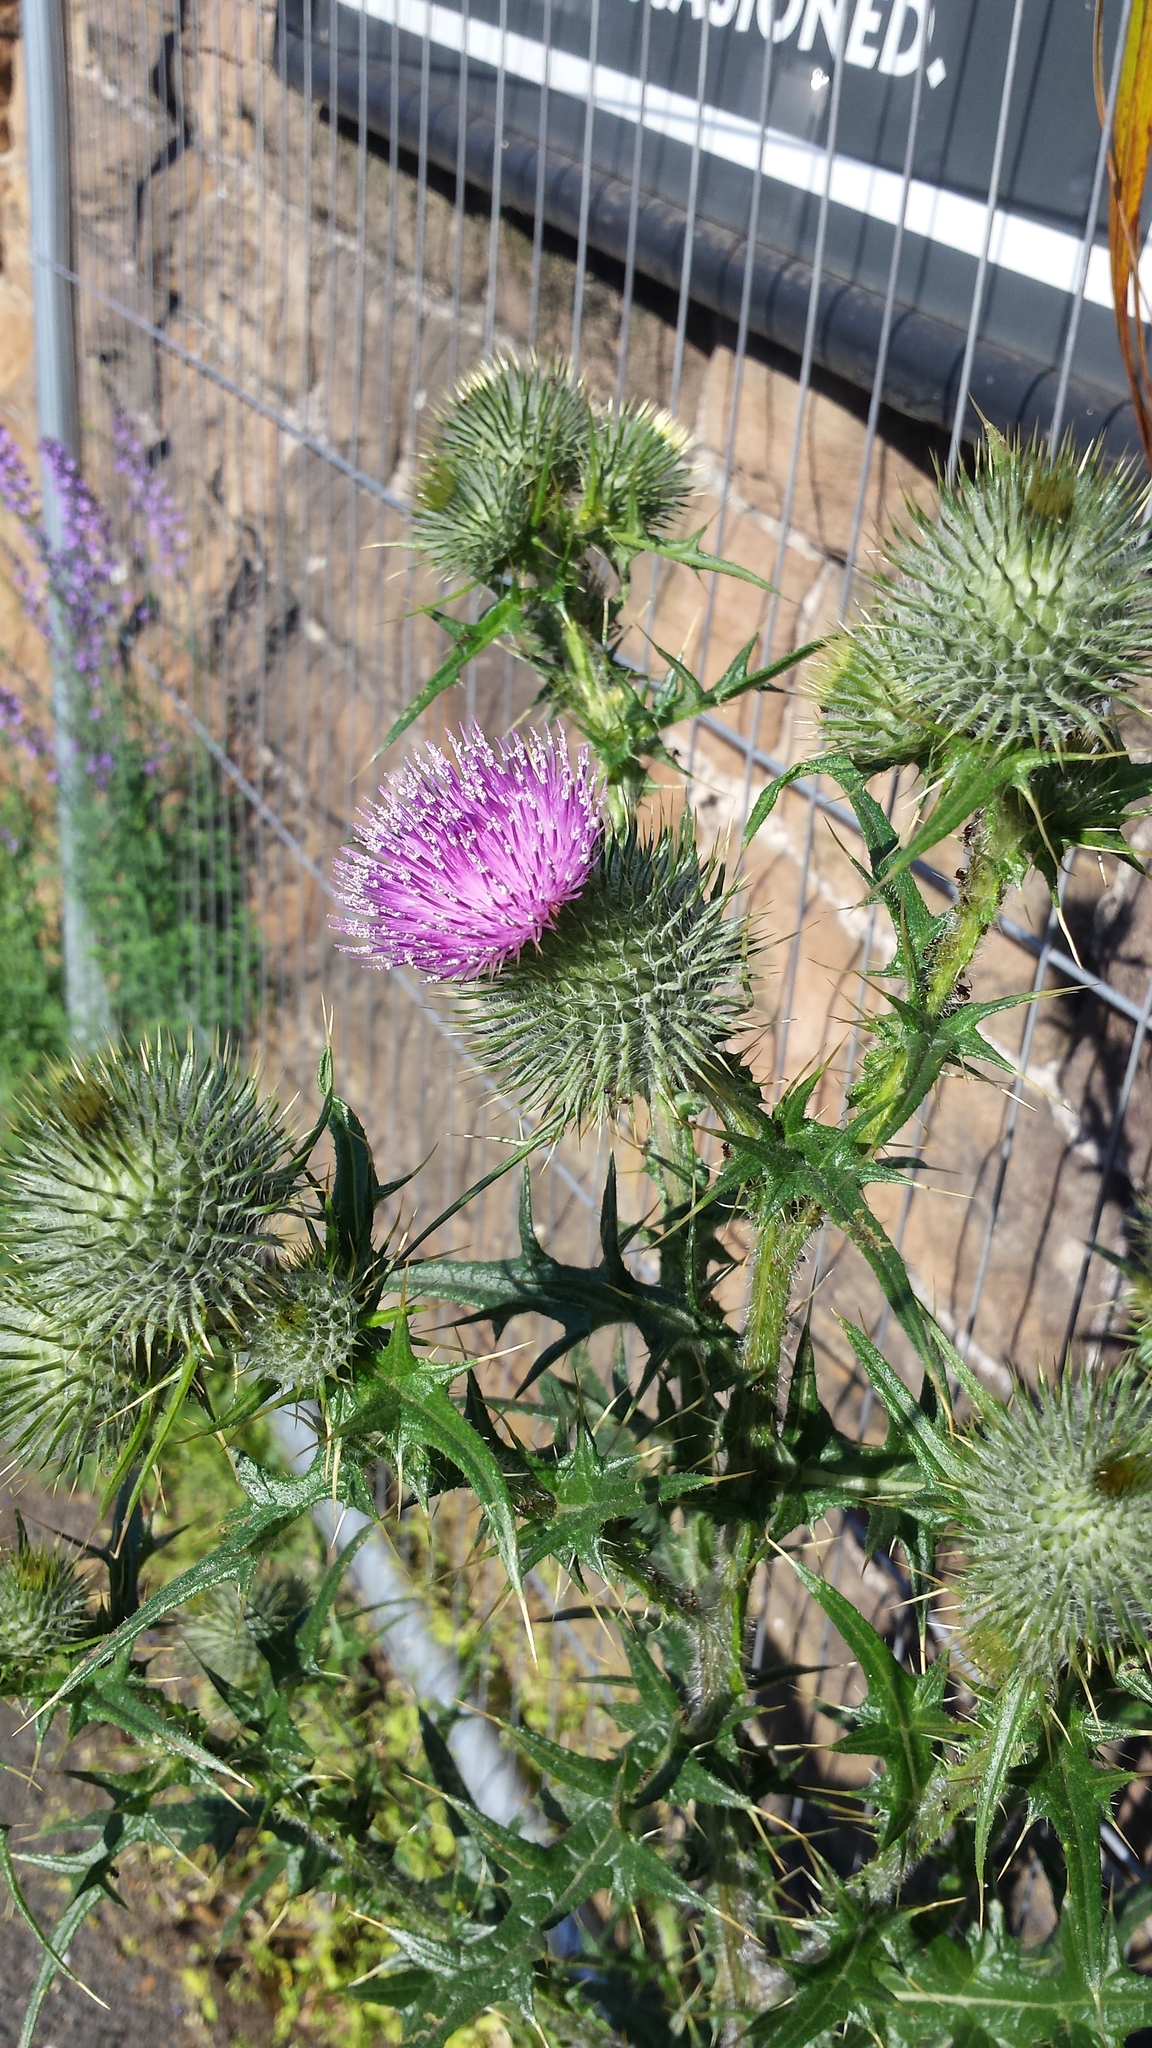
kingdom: Plantae
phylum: Tracheophyta
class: Magnoliopsida
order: Asterales
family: Asteraceae
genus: Cirsium
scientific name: Cirsium vulgare
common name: Bull thistle
